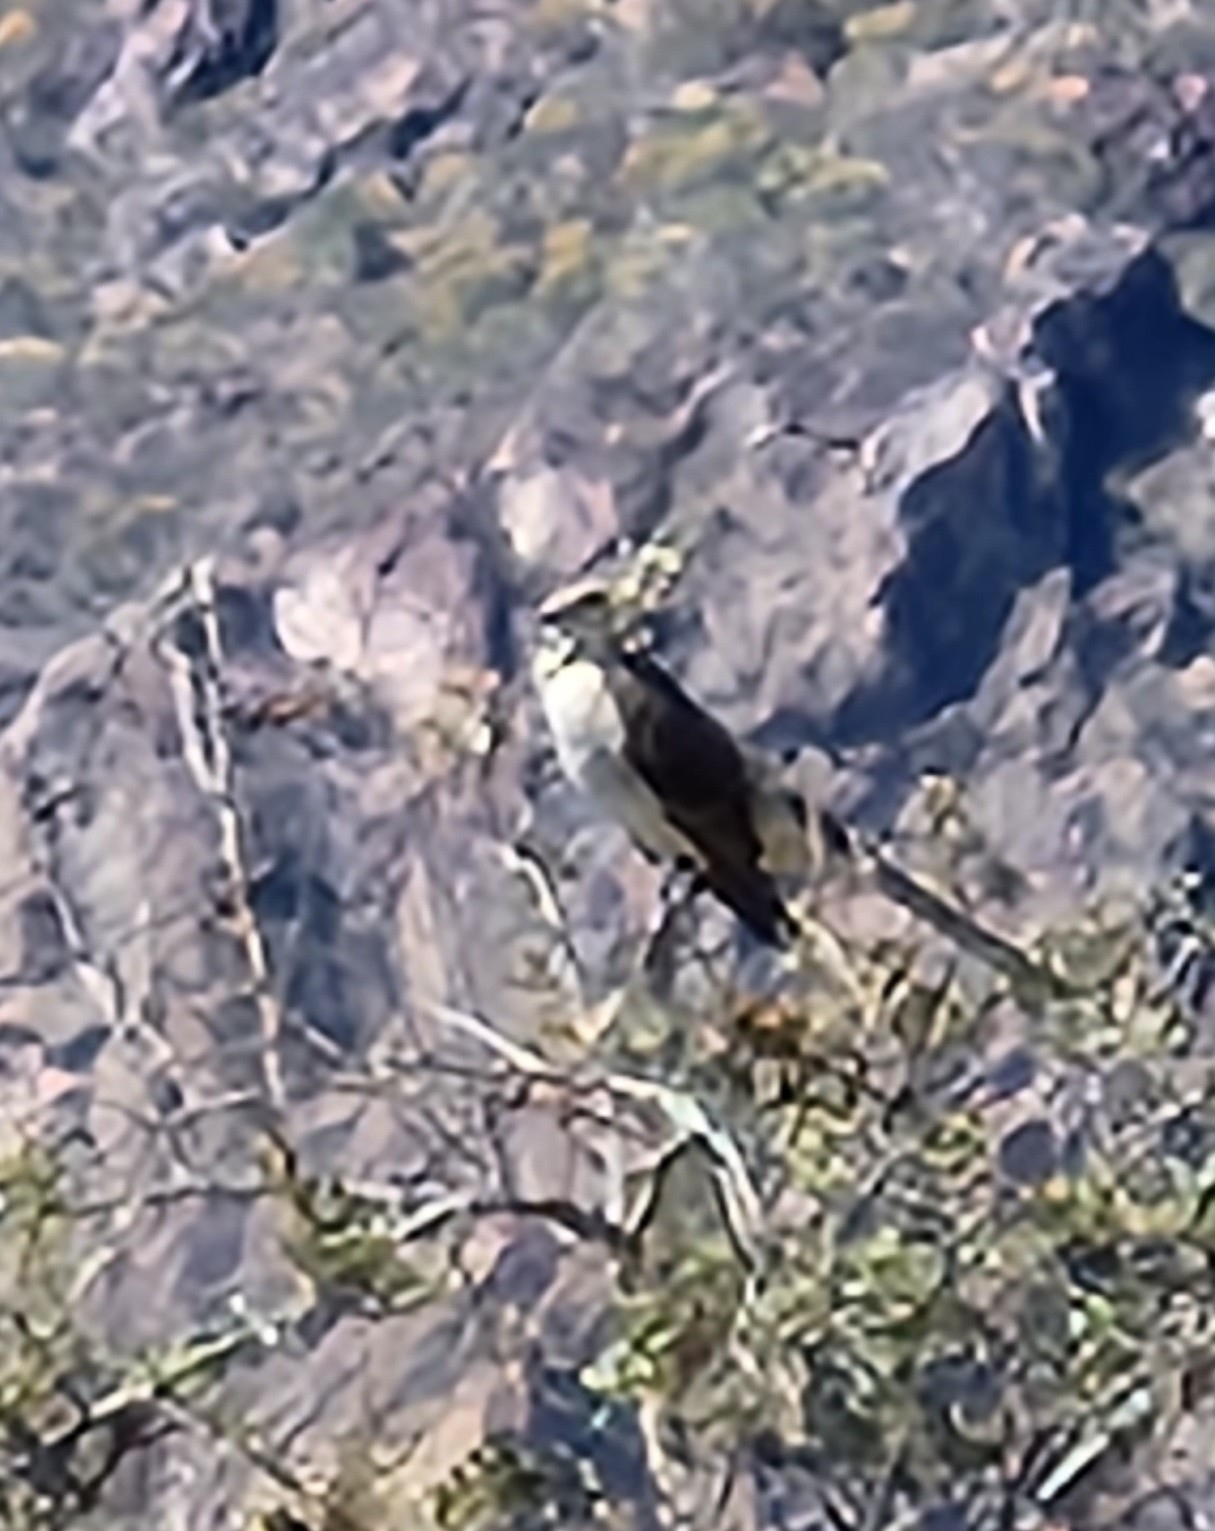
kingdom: Animalia
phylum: Chordata
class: Aves
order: Passeriformes
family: Mimidae
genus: Mimus
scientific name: Mimus polyglottos
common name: Northern mockingbird
